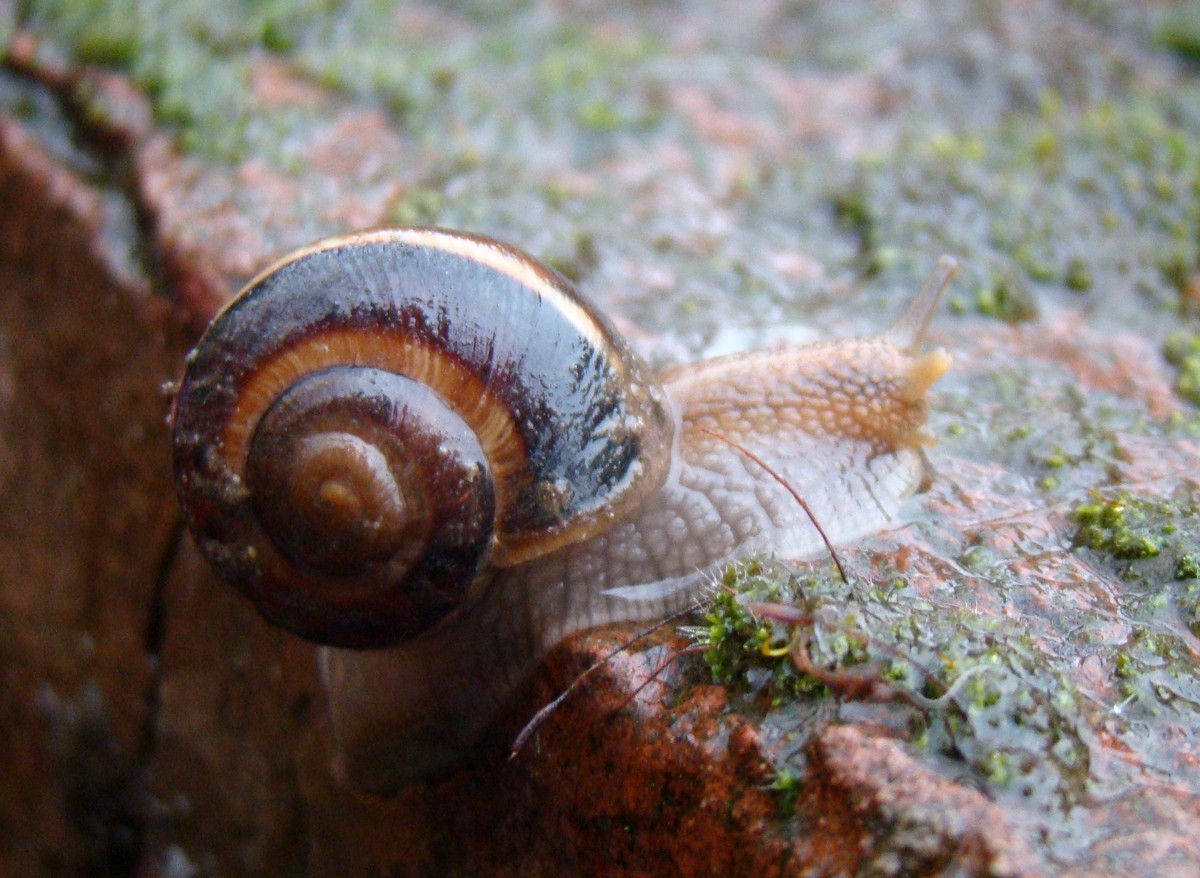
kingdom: Animalia
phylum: Mollusca
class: Gastropoda
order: Stylommatophora
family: Helicidae
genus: Helix
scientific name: Helix lucorum
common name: Turkish snail
